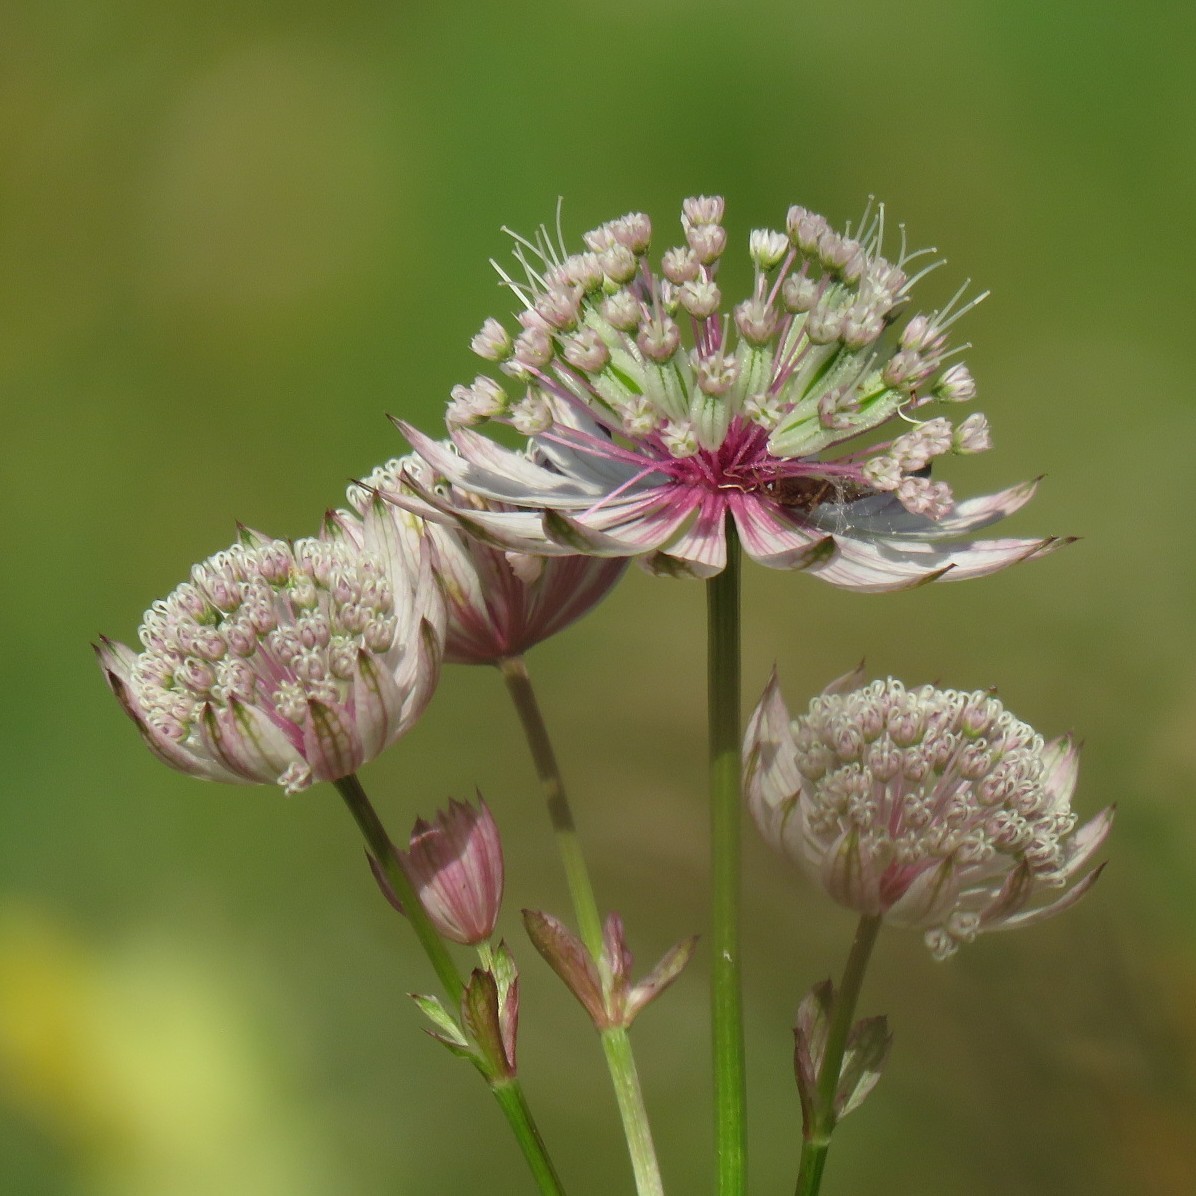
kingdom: Plantae
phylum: Tracheophyta
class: Magnoliopsida
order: Apiales
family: Apiaceae
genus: Astrantia
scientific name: Astrantia major
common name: Greater masterwort
